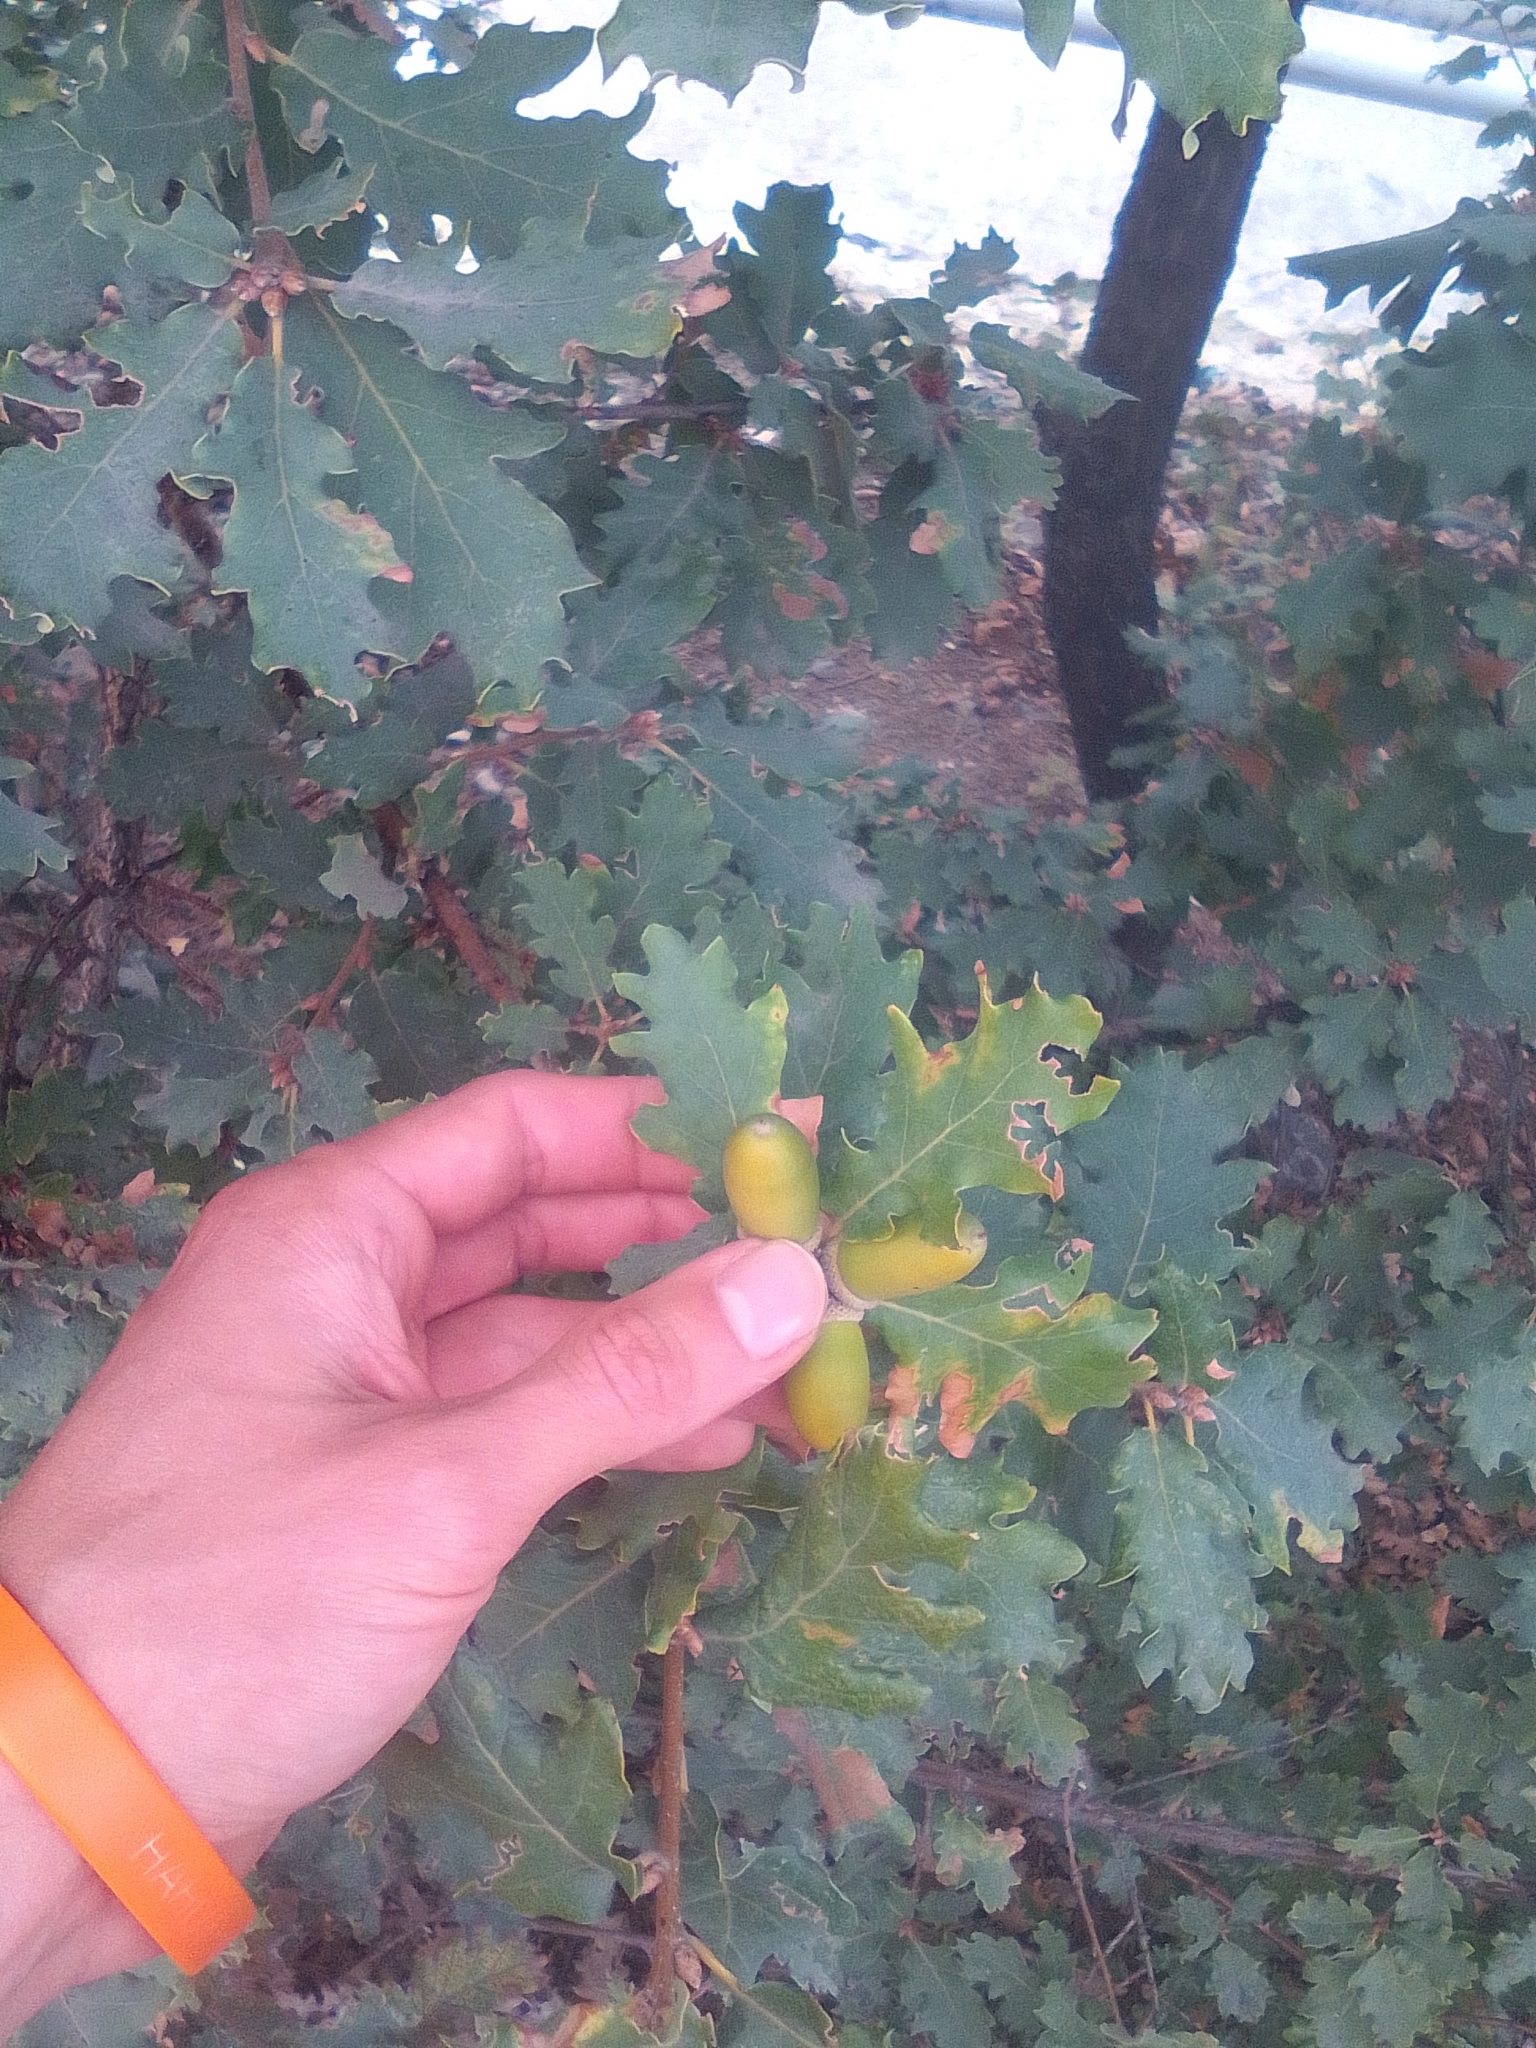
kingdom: Plantae
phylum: Tracheophyta
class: Magnoliopsida
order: Fagales
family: Fagaceae
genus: Quercus
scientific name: Quercus pubescens
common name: Downy oak
